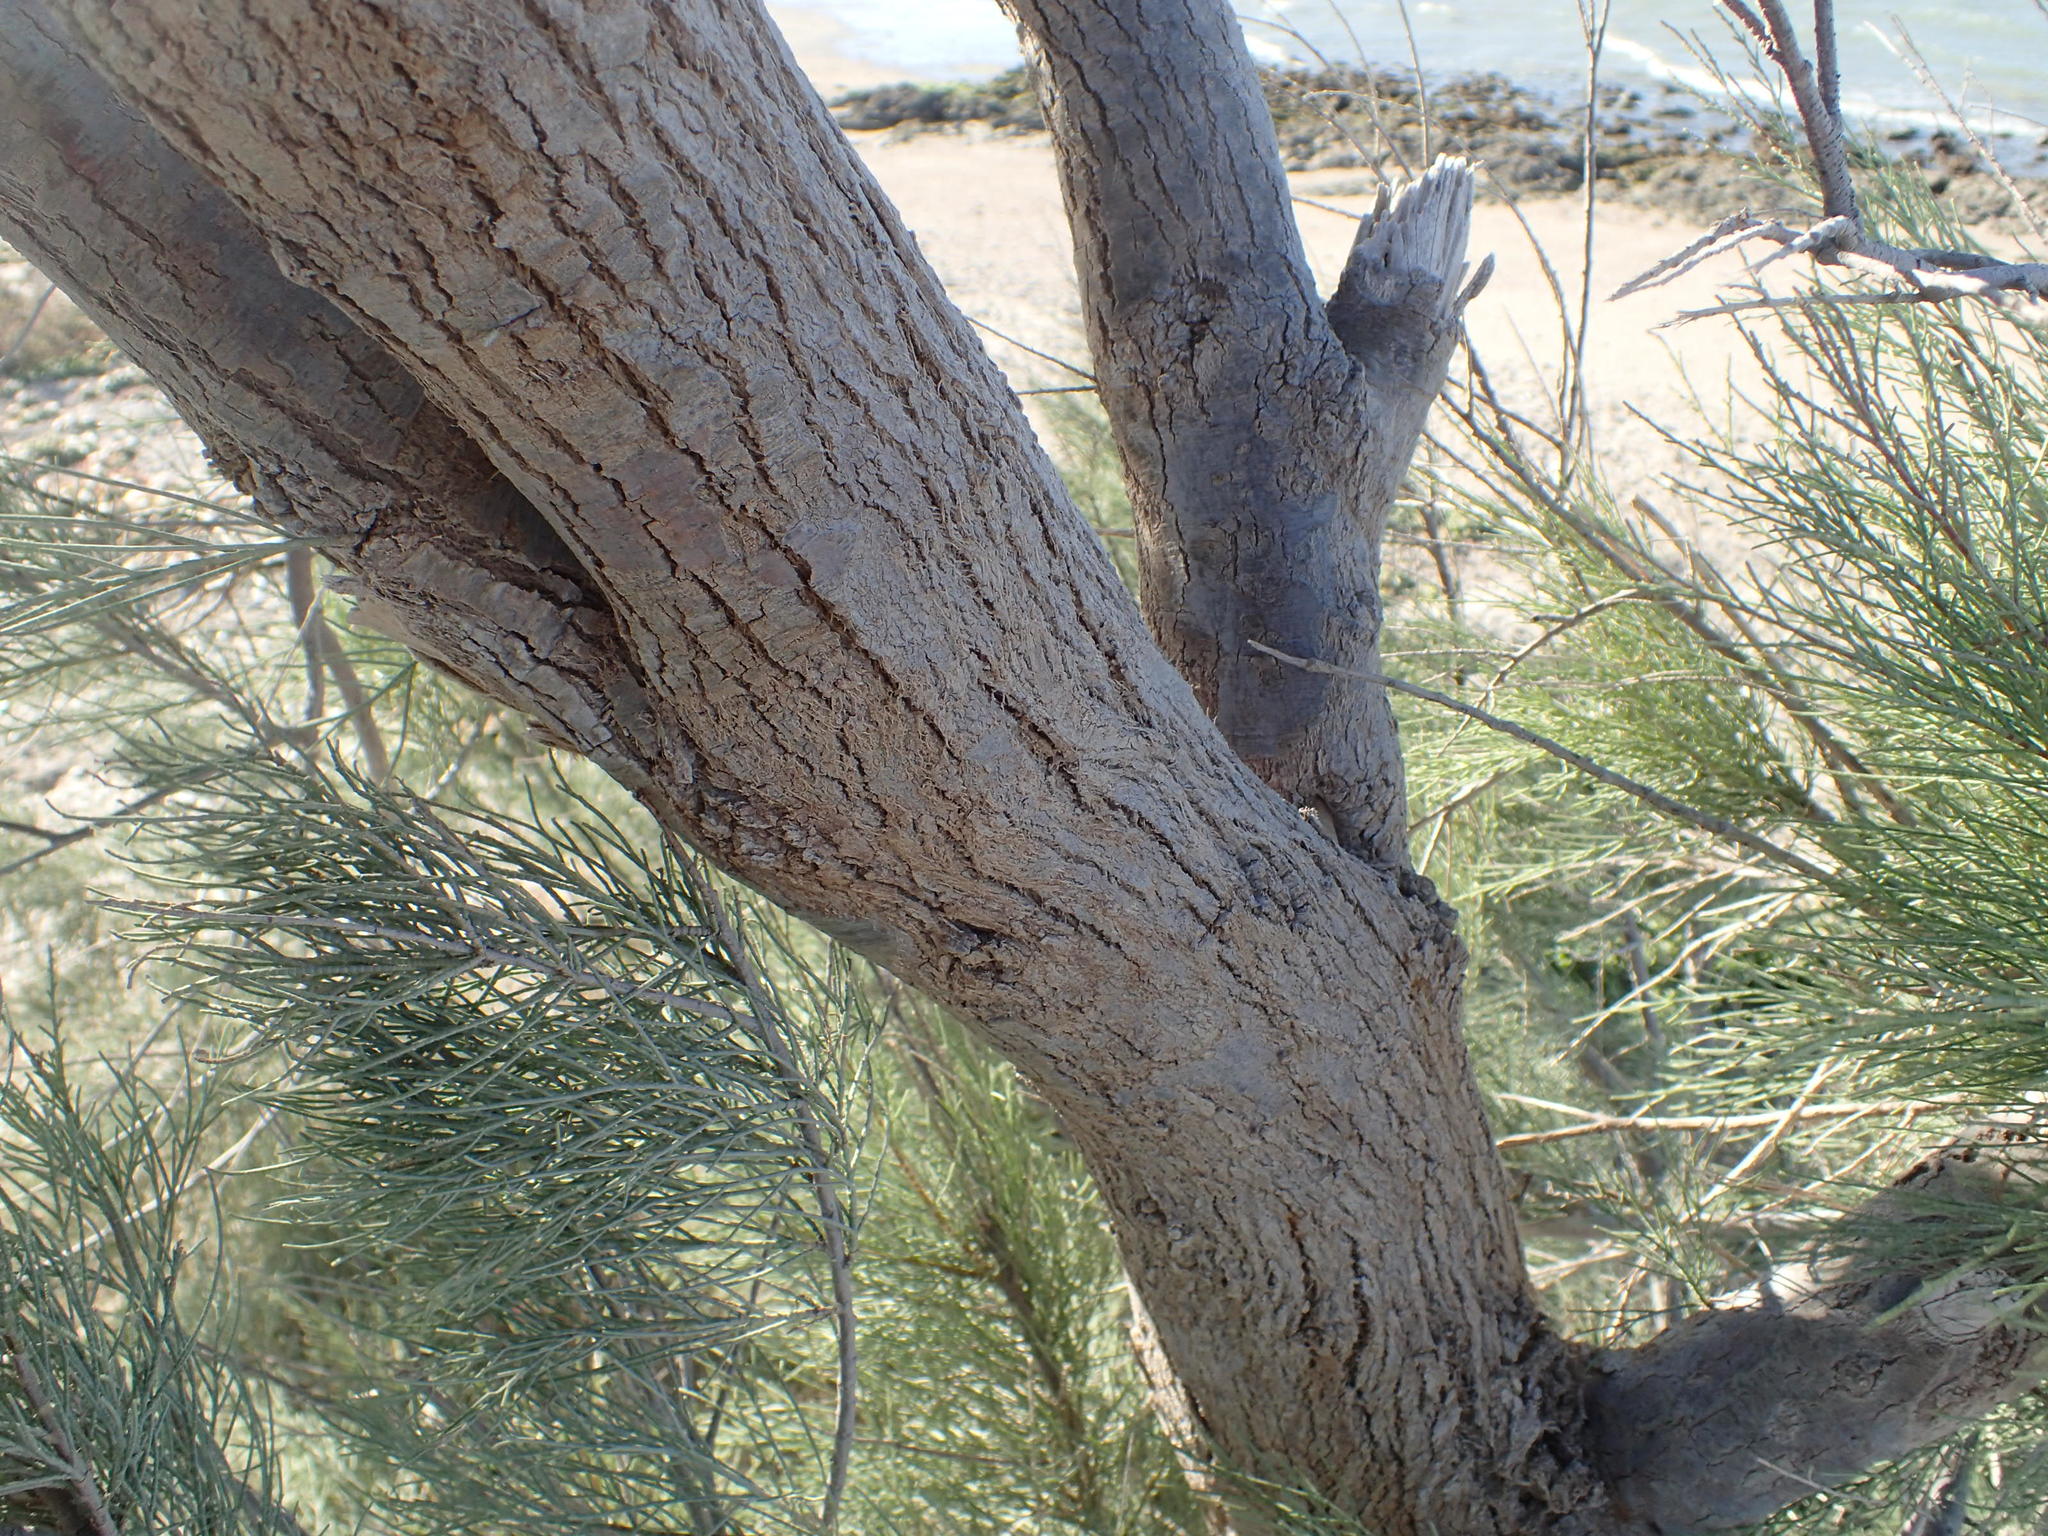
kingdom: Plantae
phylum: Tracheophyta
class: Magnoliopsida
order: Caryophyllales
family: Tamaricaceae
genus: Tamarix
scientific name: Tamarix aphylla
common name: Athel tamarisk
